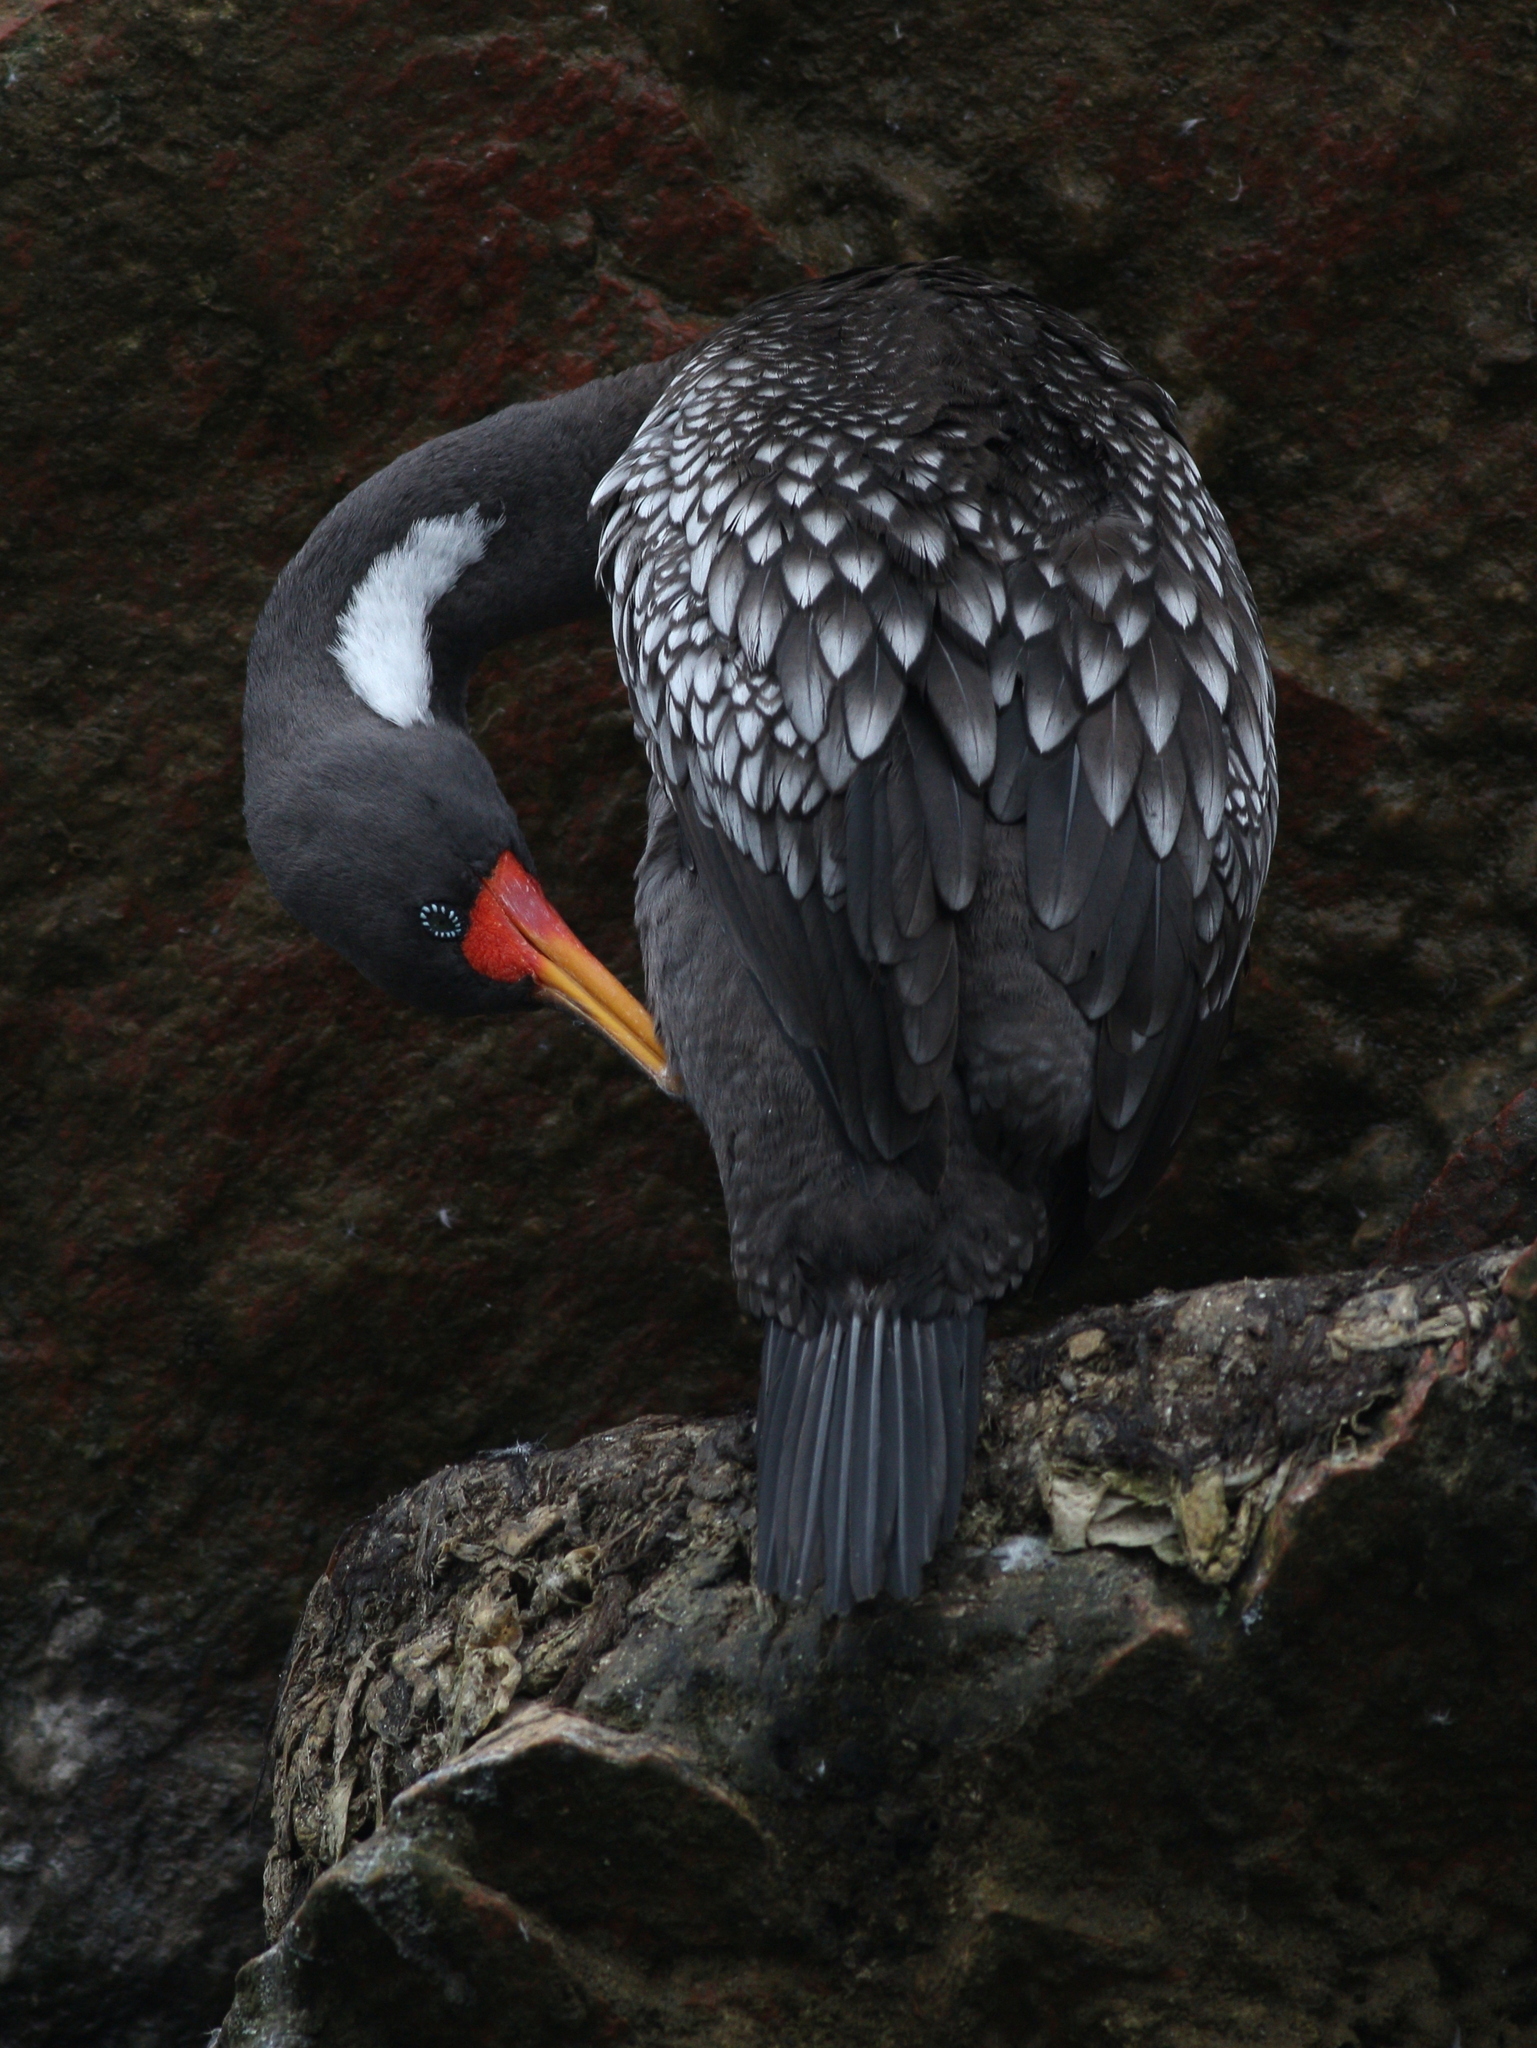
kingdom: Animalia
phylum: Chordata
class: Aves
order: Suliformes
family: Phalacrocoracidae
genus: Phalacrocorax
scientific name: Phalacrocorax gaimardi
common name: Red-legged cormorant
